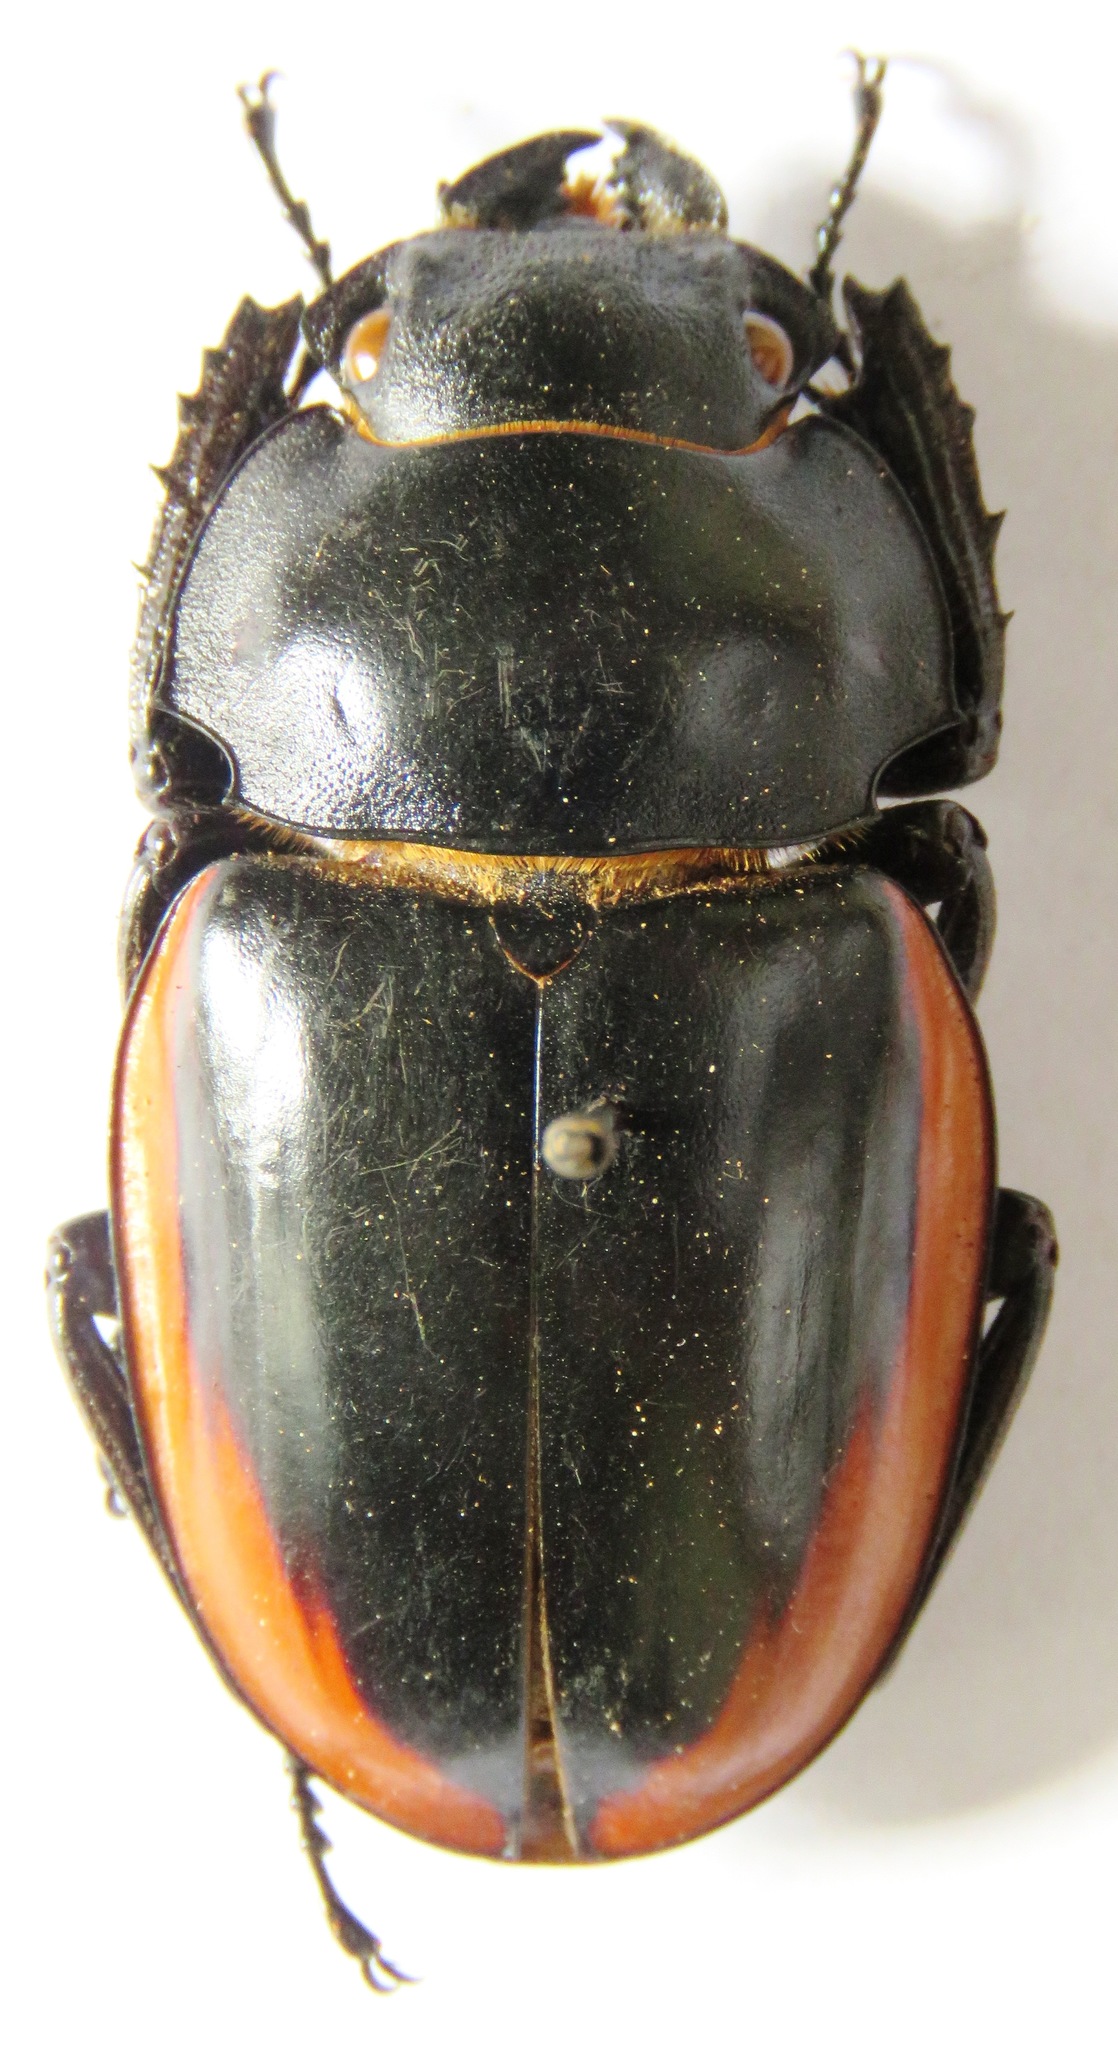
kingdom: Animalia
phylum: Arthropoda
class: Insecta
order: Coleoptera
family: Lucanidae
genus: Odontolabis
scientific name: Odontolabis cuvera
